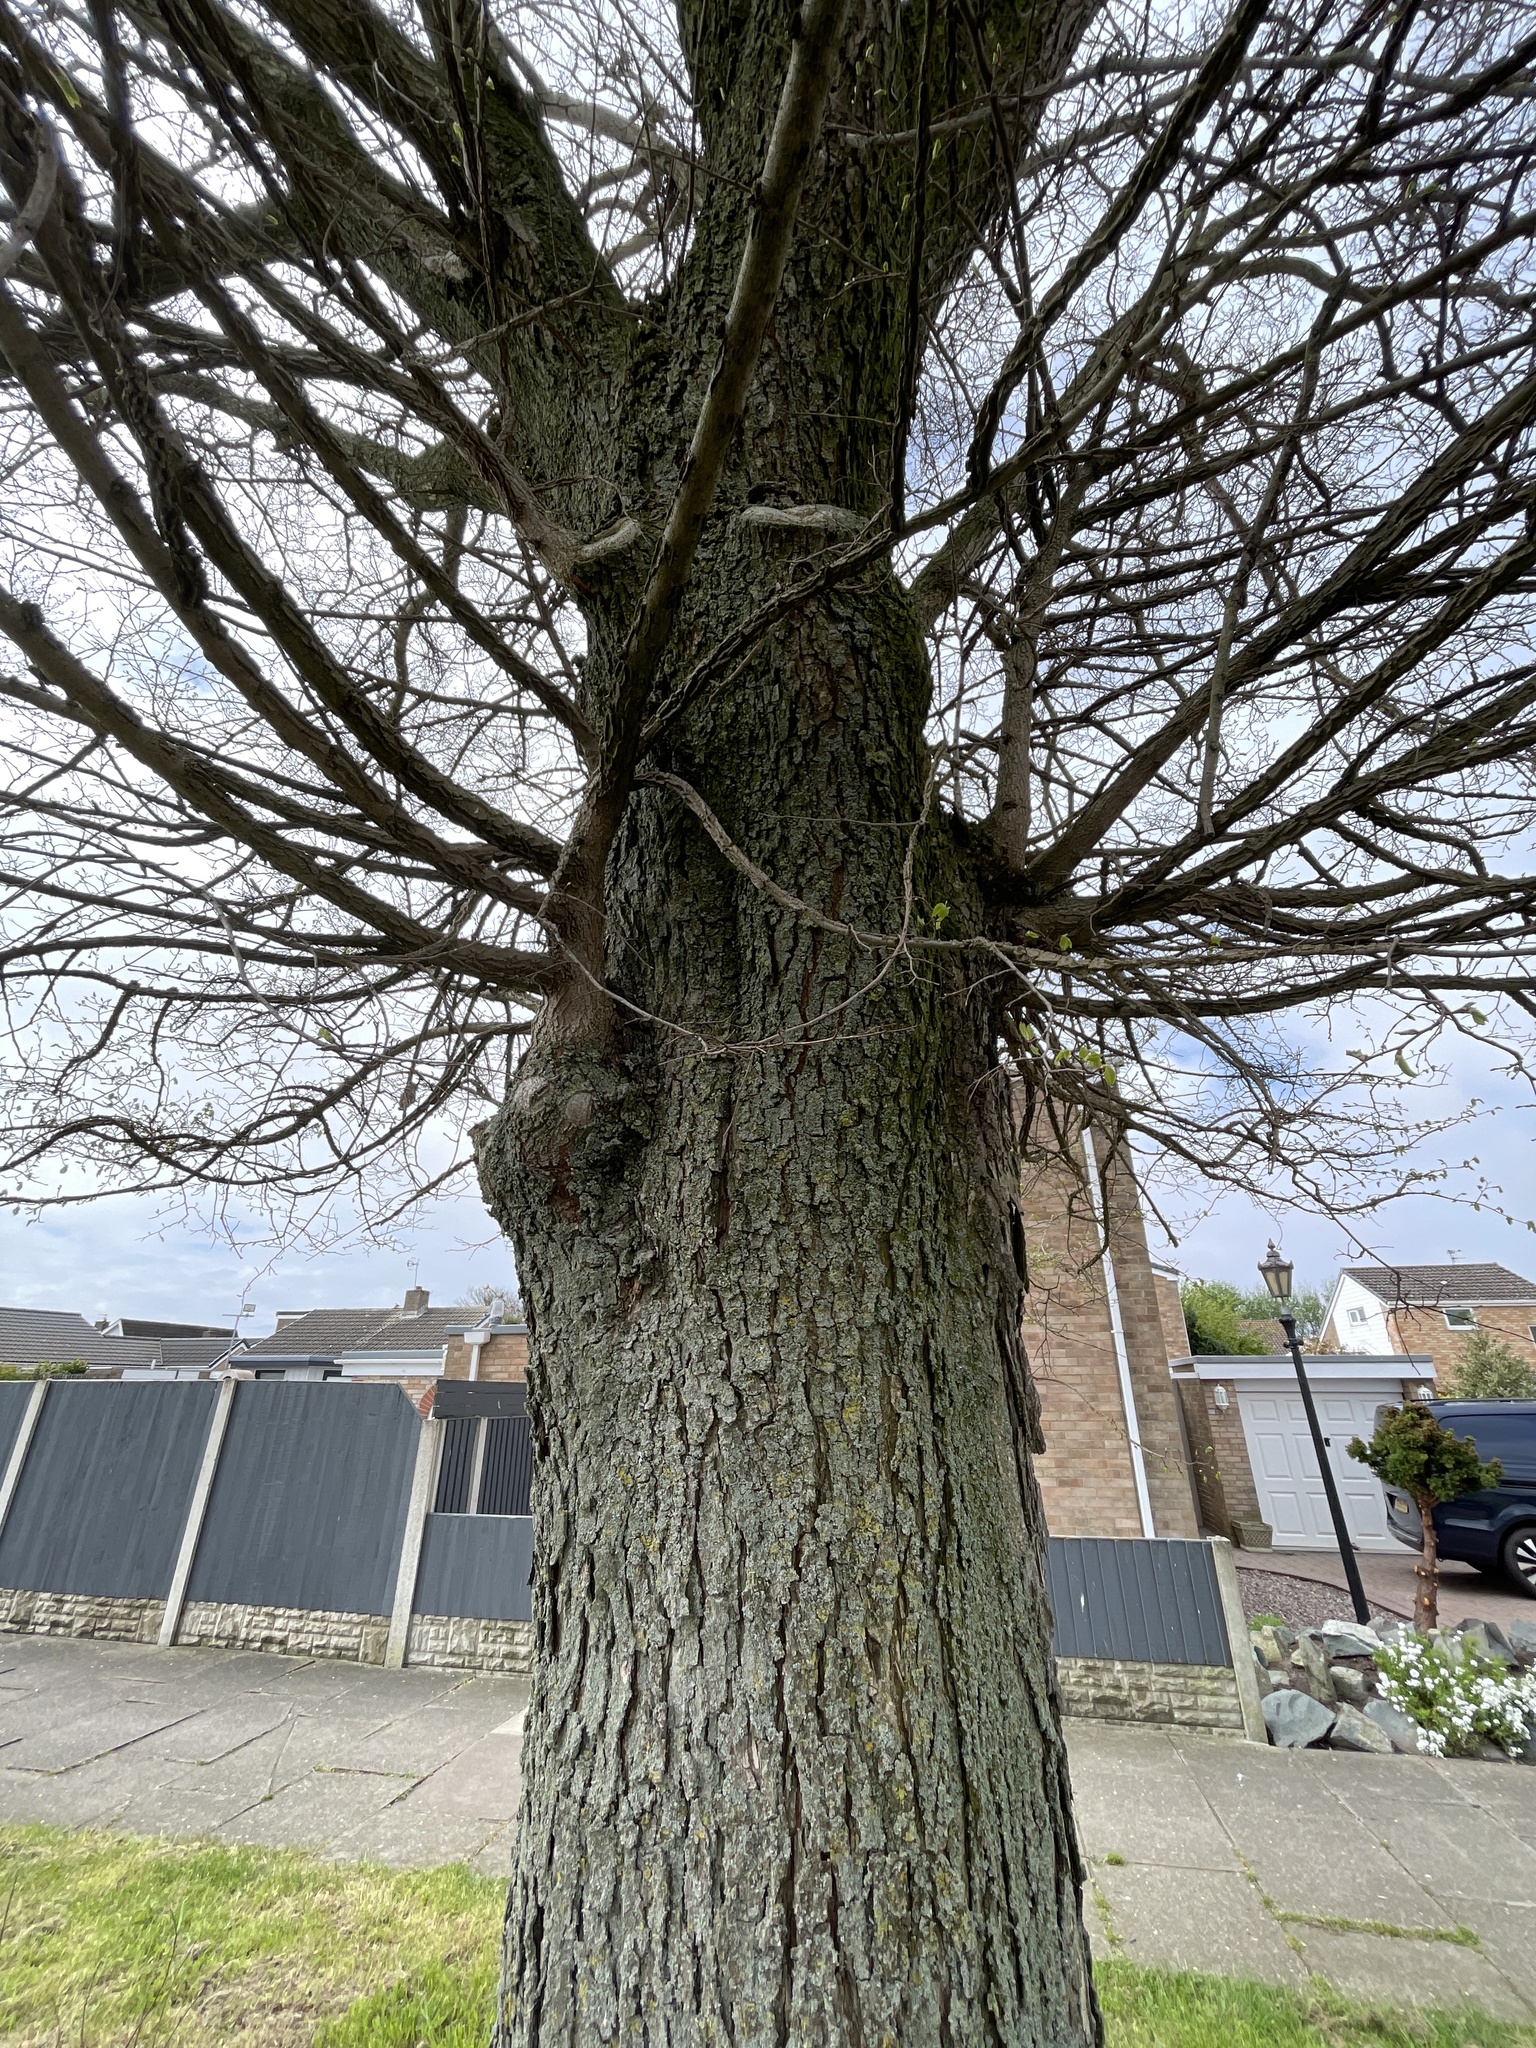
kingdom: Plantae
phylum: Tracheophyta
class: Magnoliopsida
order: Rosales
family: Ulmaceae
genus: Ulmus
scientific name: Ulmus glabra
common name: Wych elm
